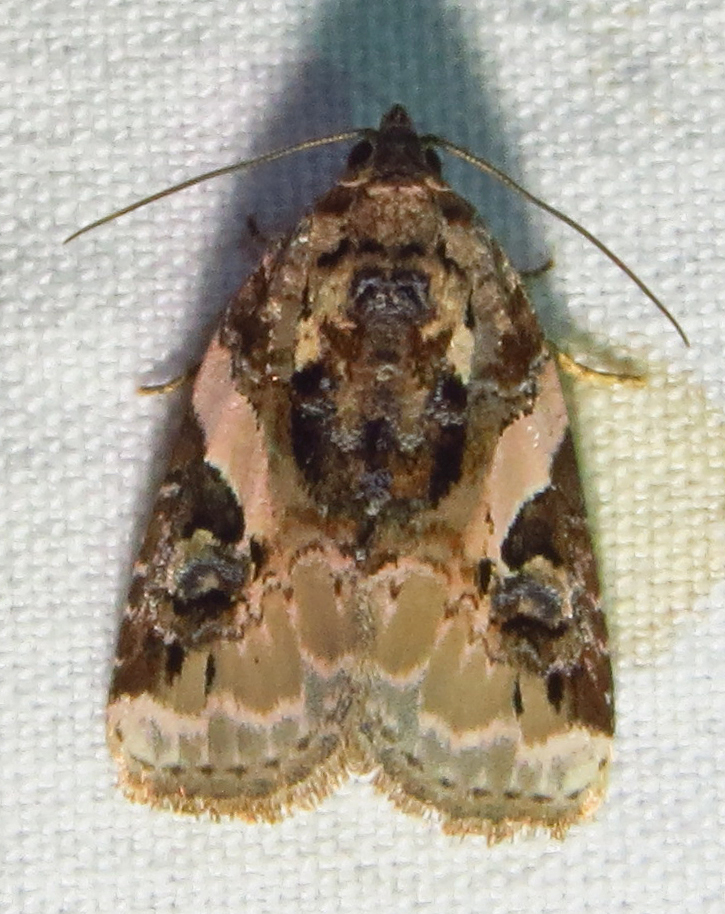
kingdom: Animalia
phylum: Arthropoda
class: Insecta
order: Lepidoptera
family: Noctuidae
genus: Pseudeustrotia
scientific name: Pseudeustrotia carneola
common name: Pink-barred lithacodia moth
